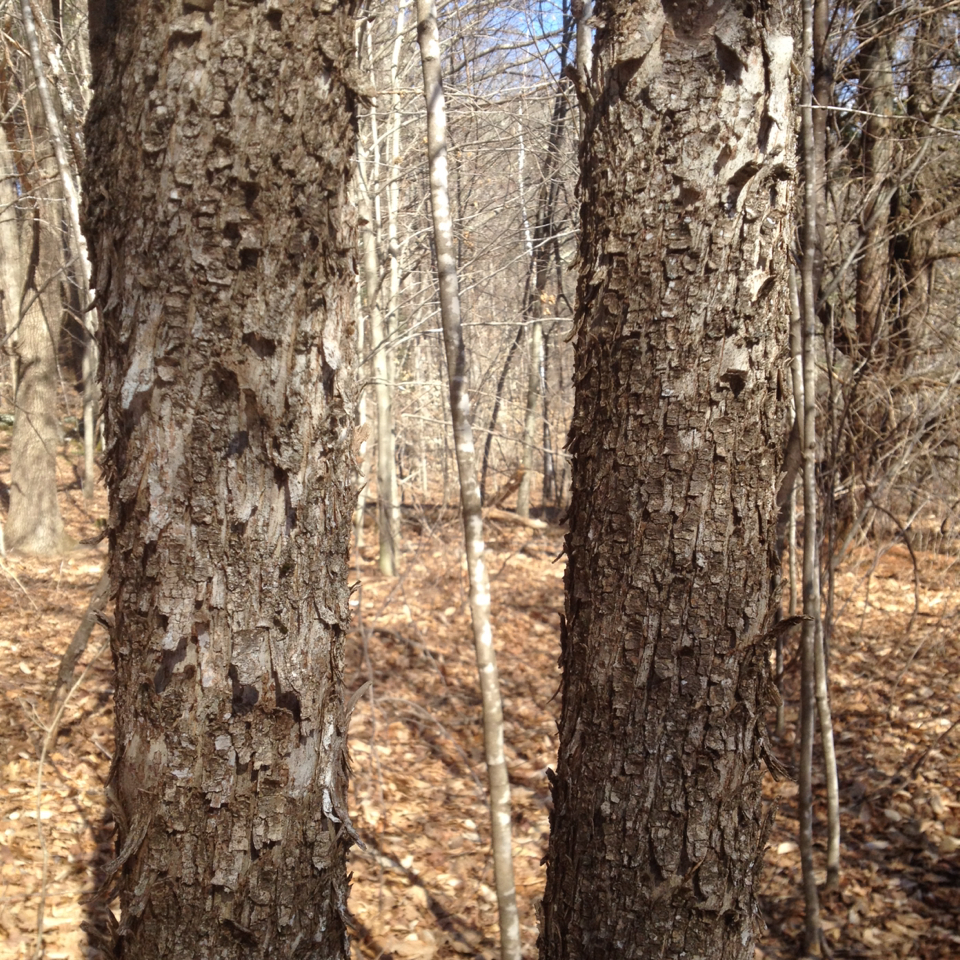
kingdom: Plantae
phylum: Tracheophyta
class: Magnoliopsida
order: Fagales
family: Betulaceae
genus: Ostrya
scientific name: Ostrya virginiana
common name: Ironwood
